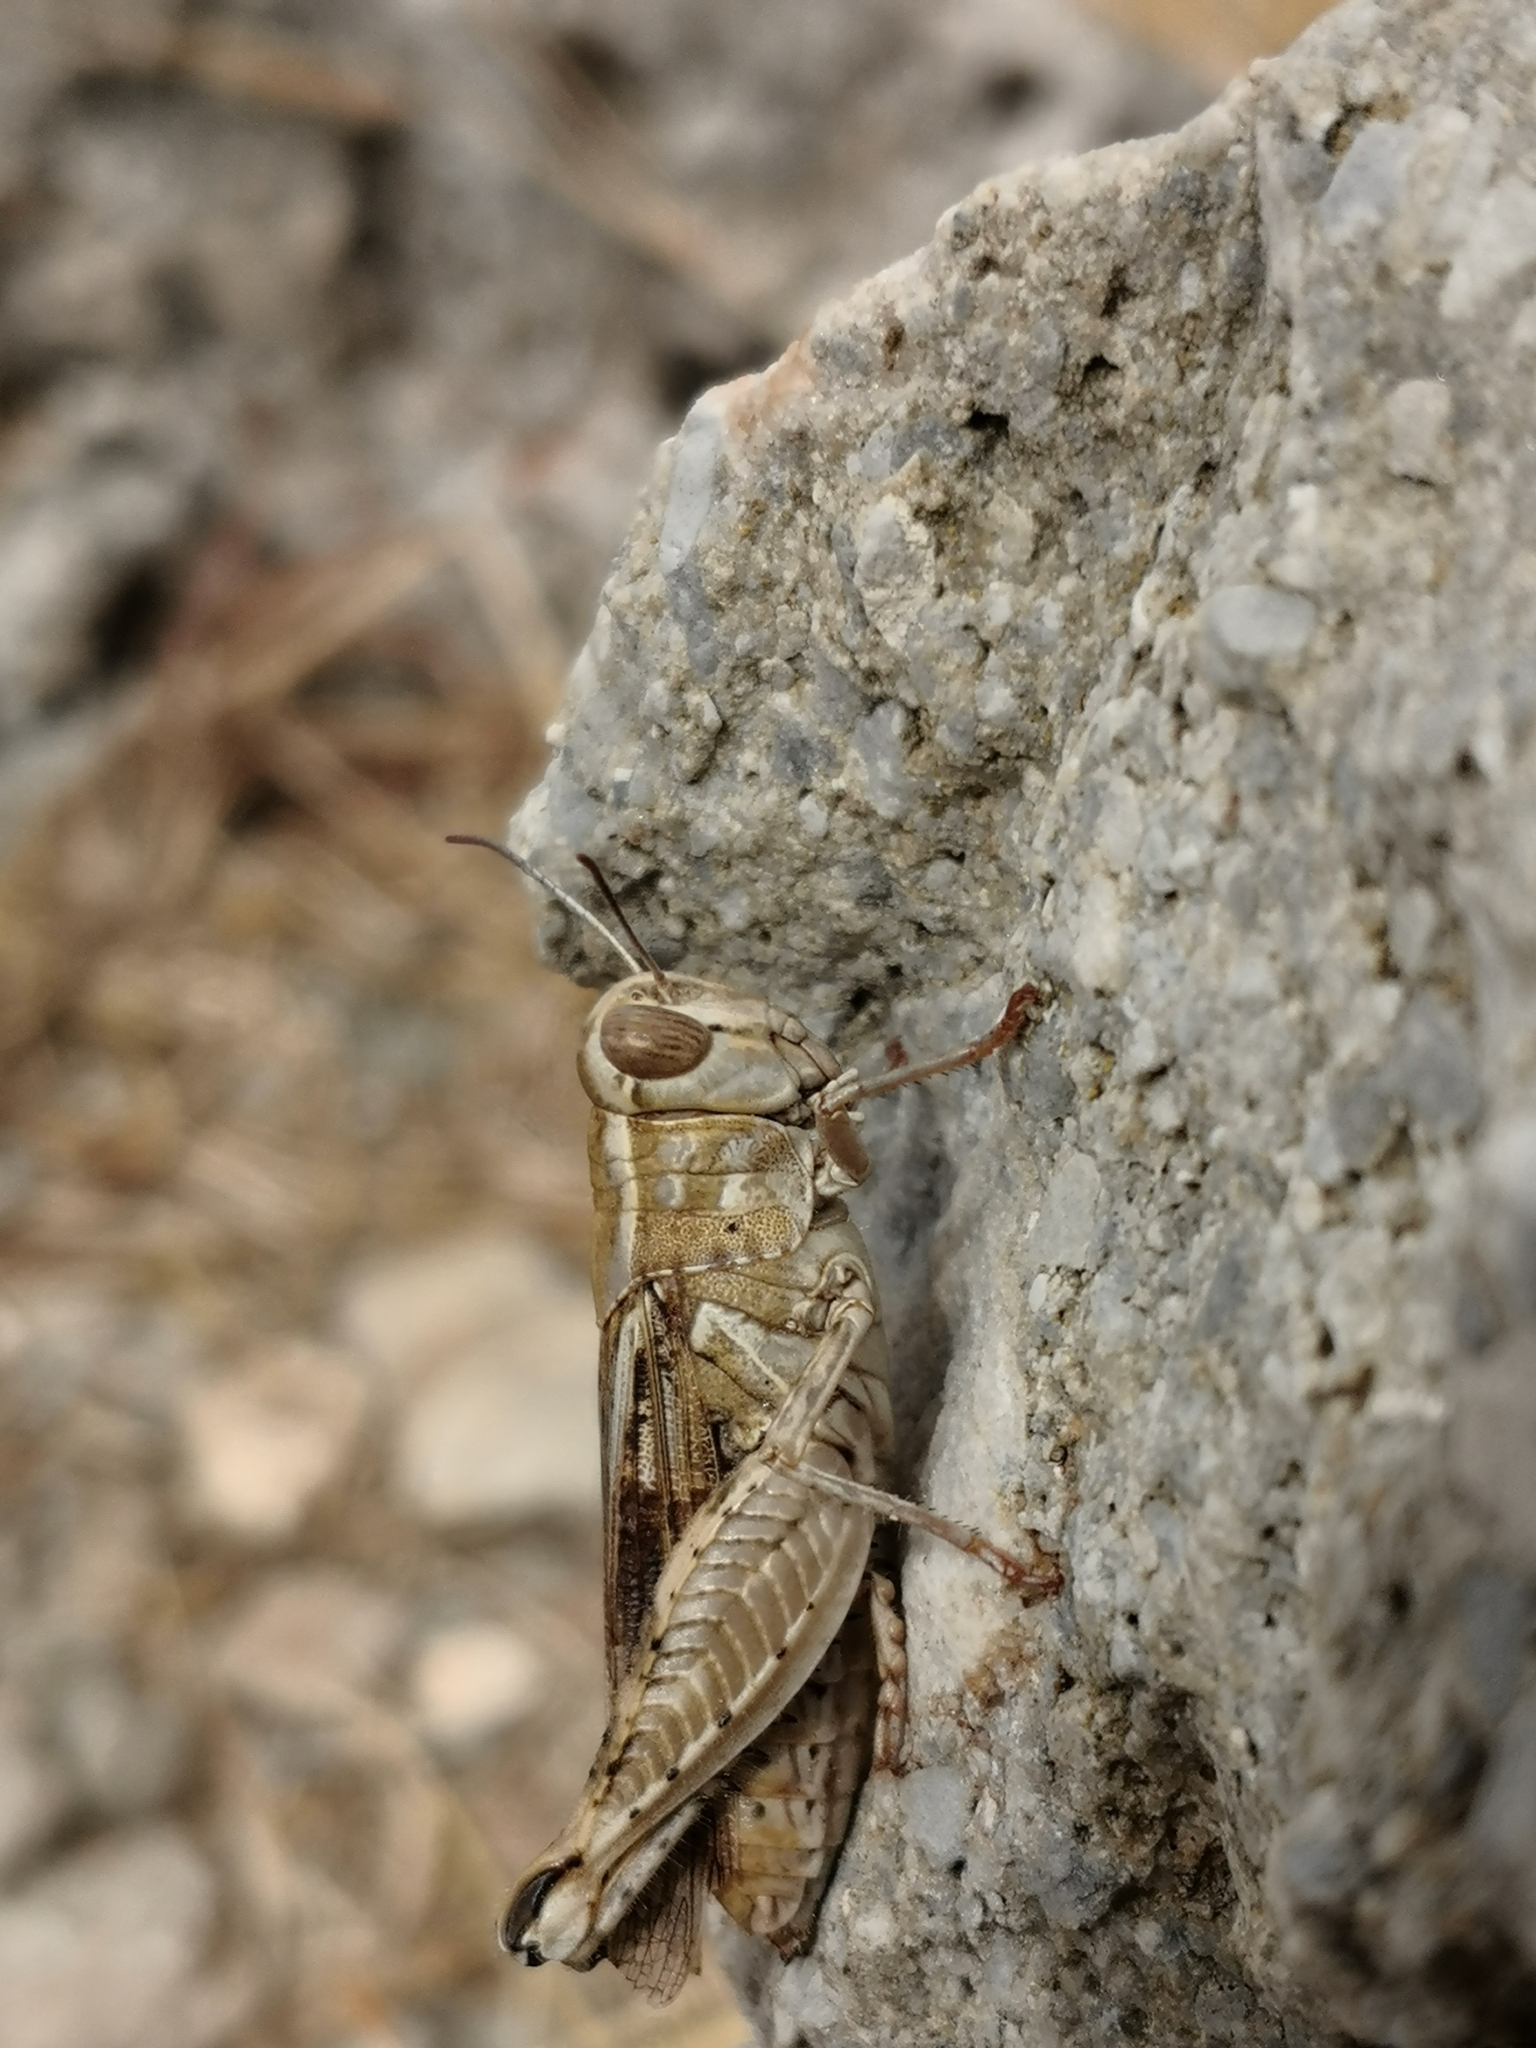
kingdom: Animalia
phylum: Arthropoda
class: Insecta
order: Orthoptera
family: Acrididae
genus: Calliptamus
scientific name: Calliptamus
